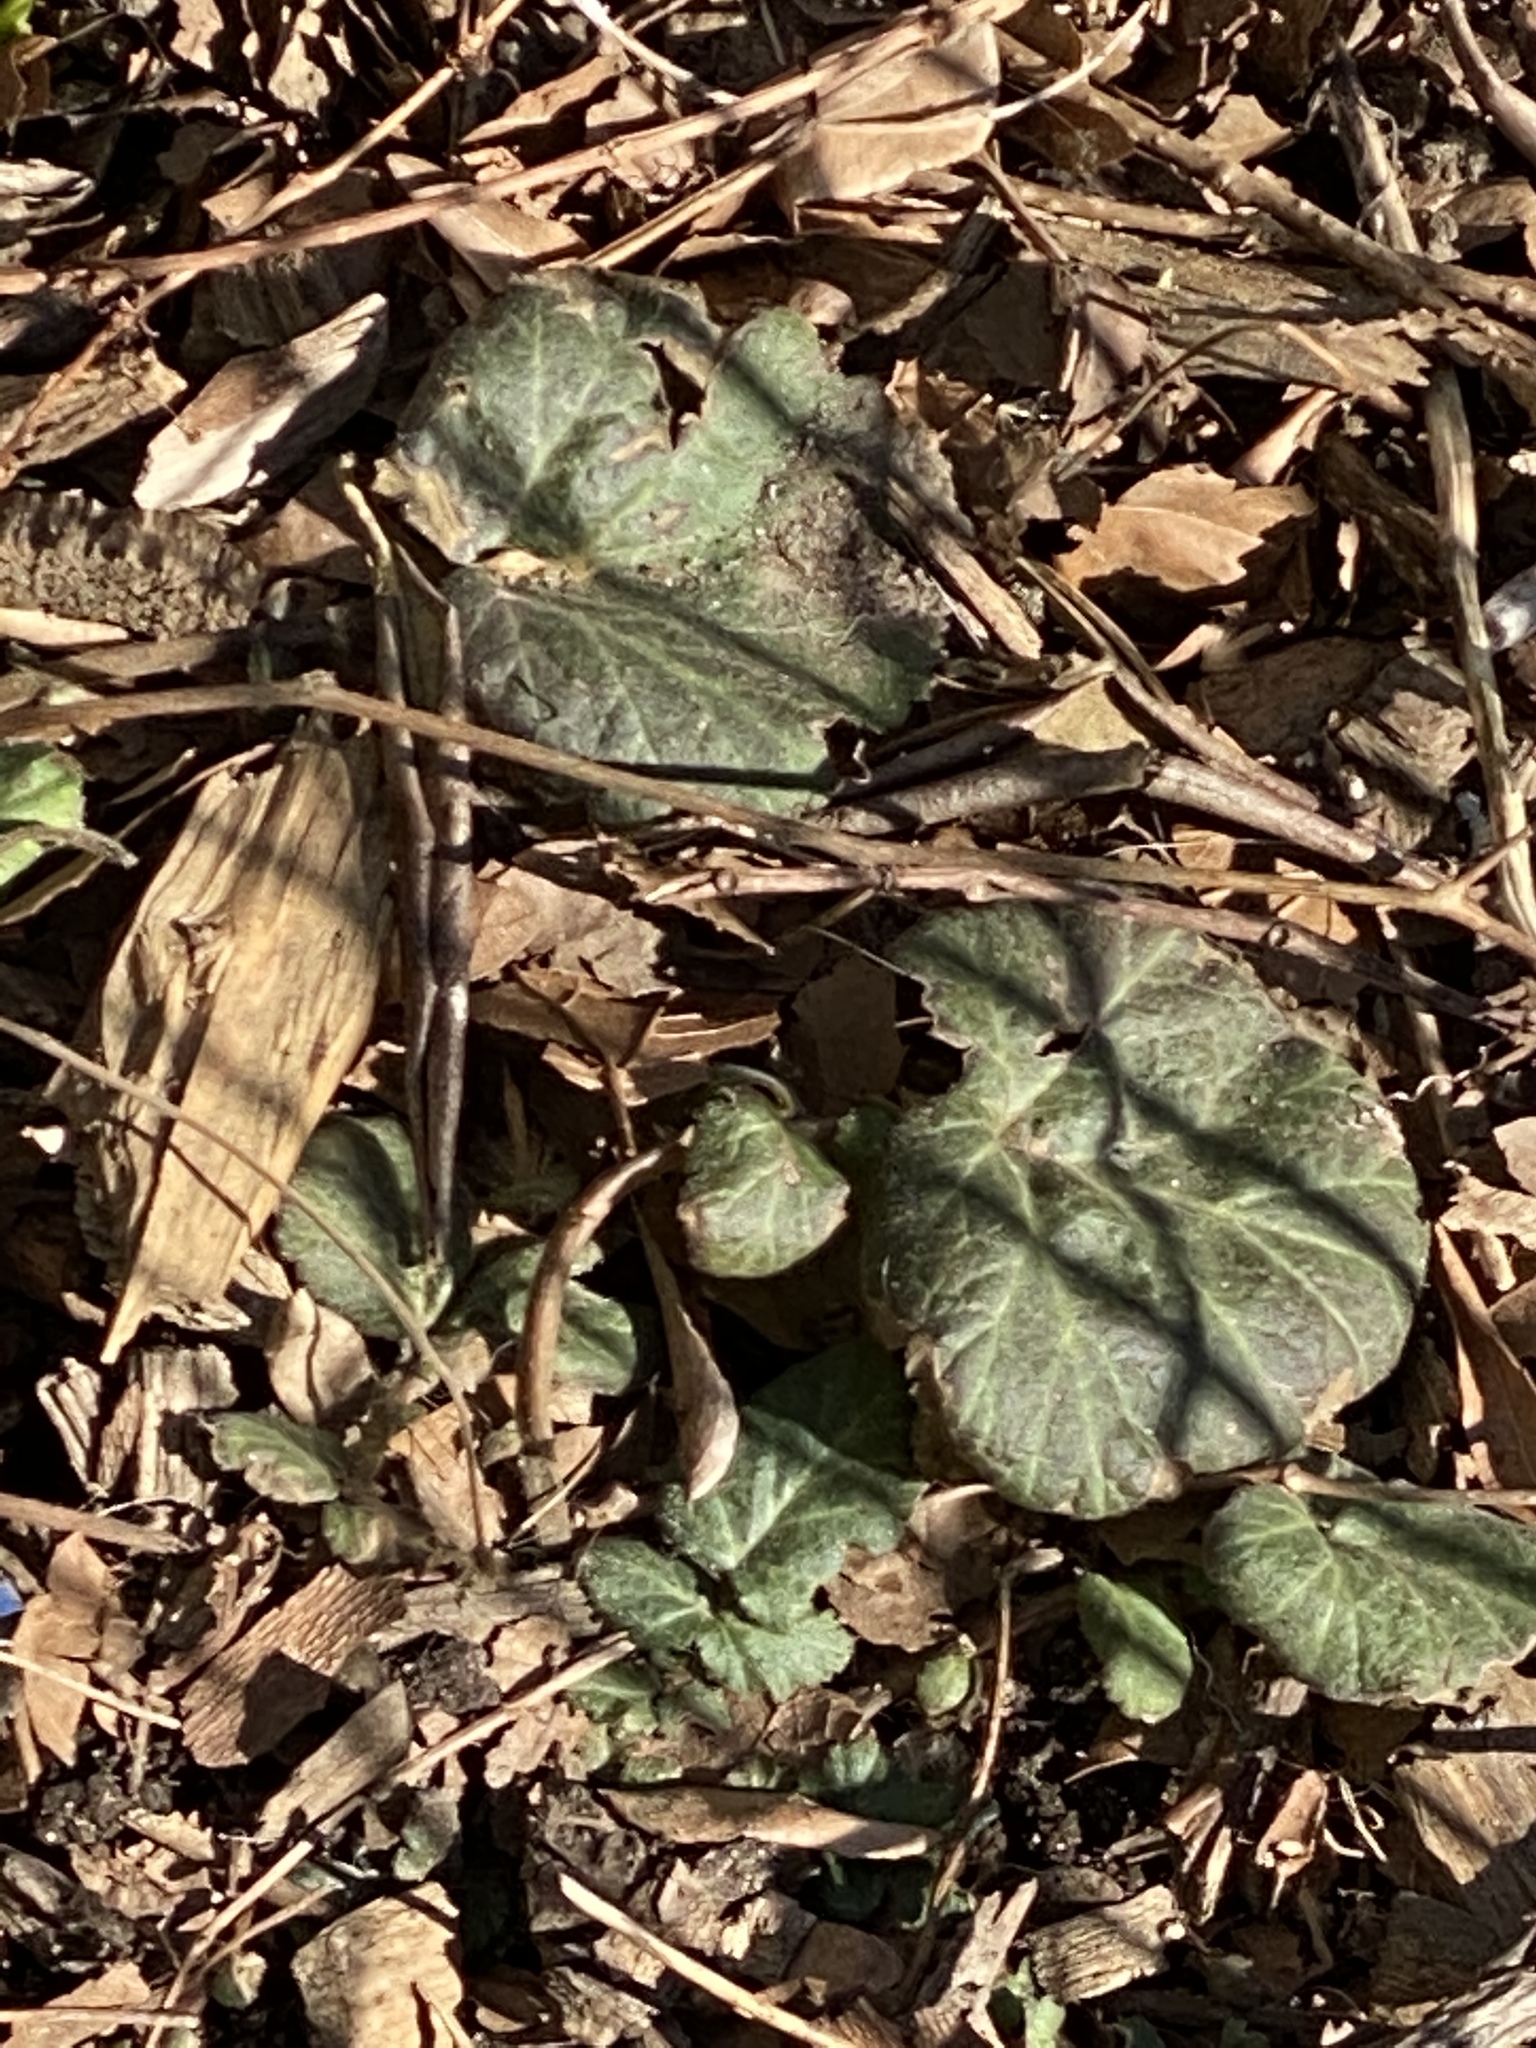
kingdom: Plantae
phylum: Tracheophyta
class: Magnoliopsida
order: Rosales
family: Rosaceae
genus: Geum
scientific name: Geum canadense
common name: White avens
